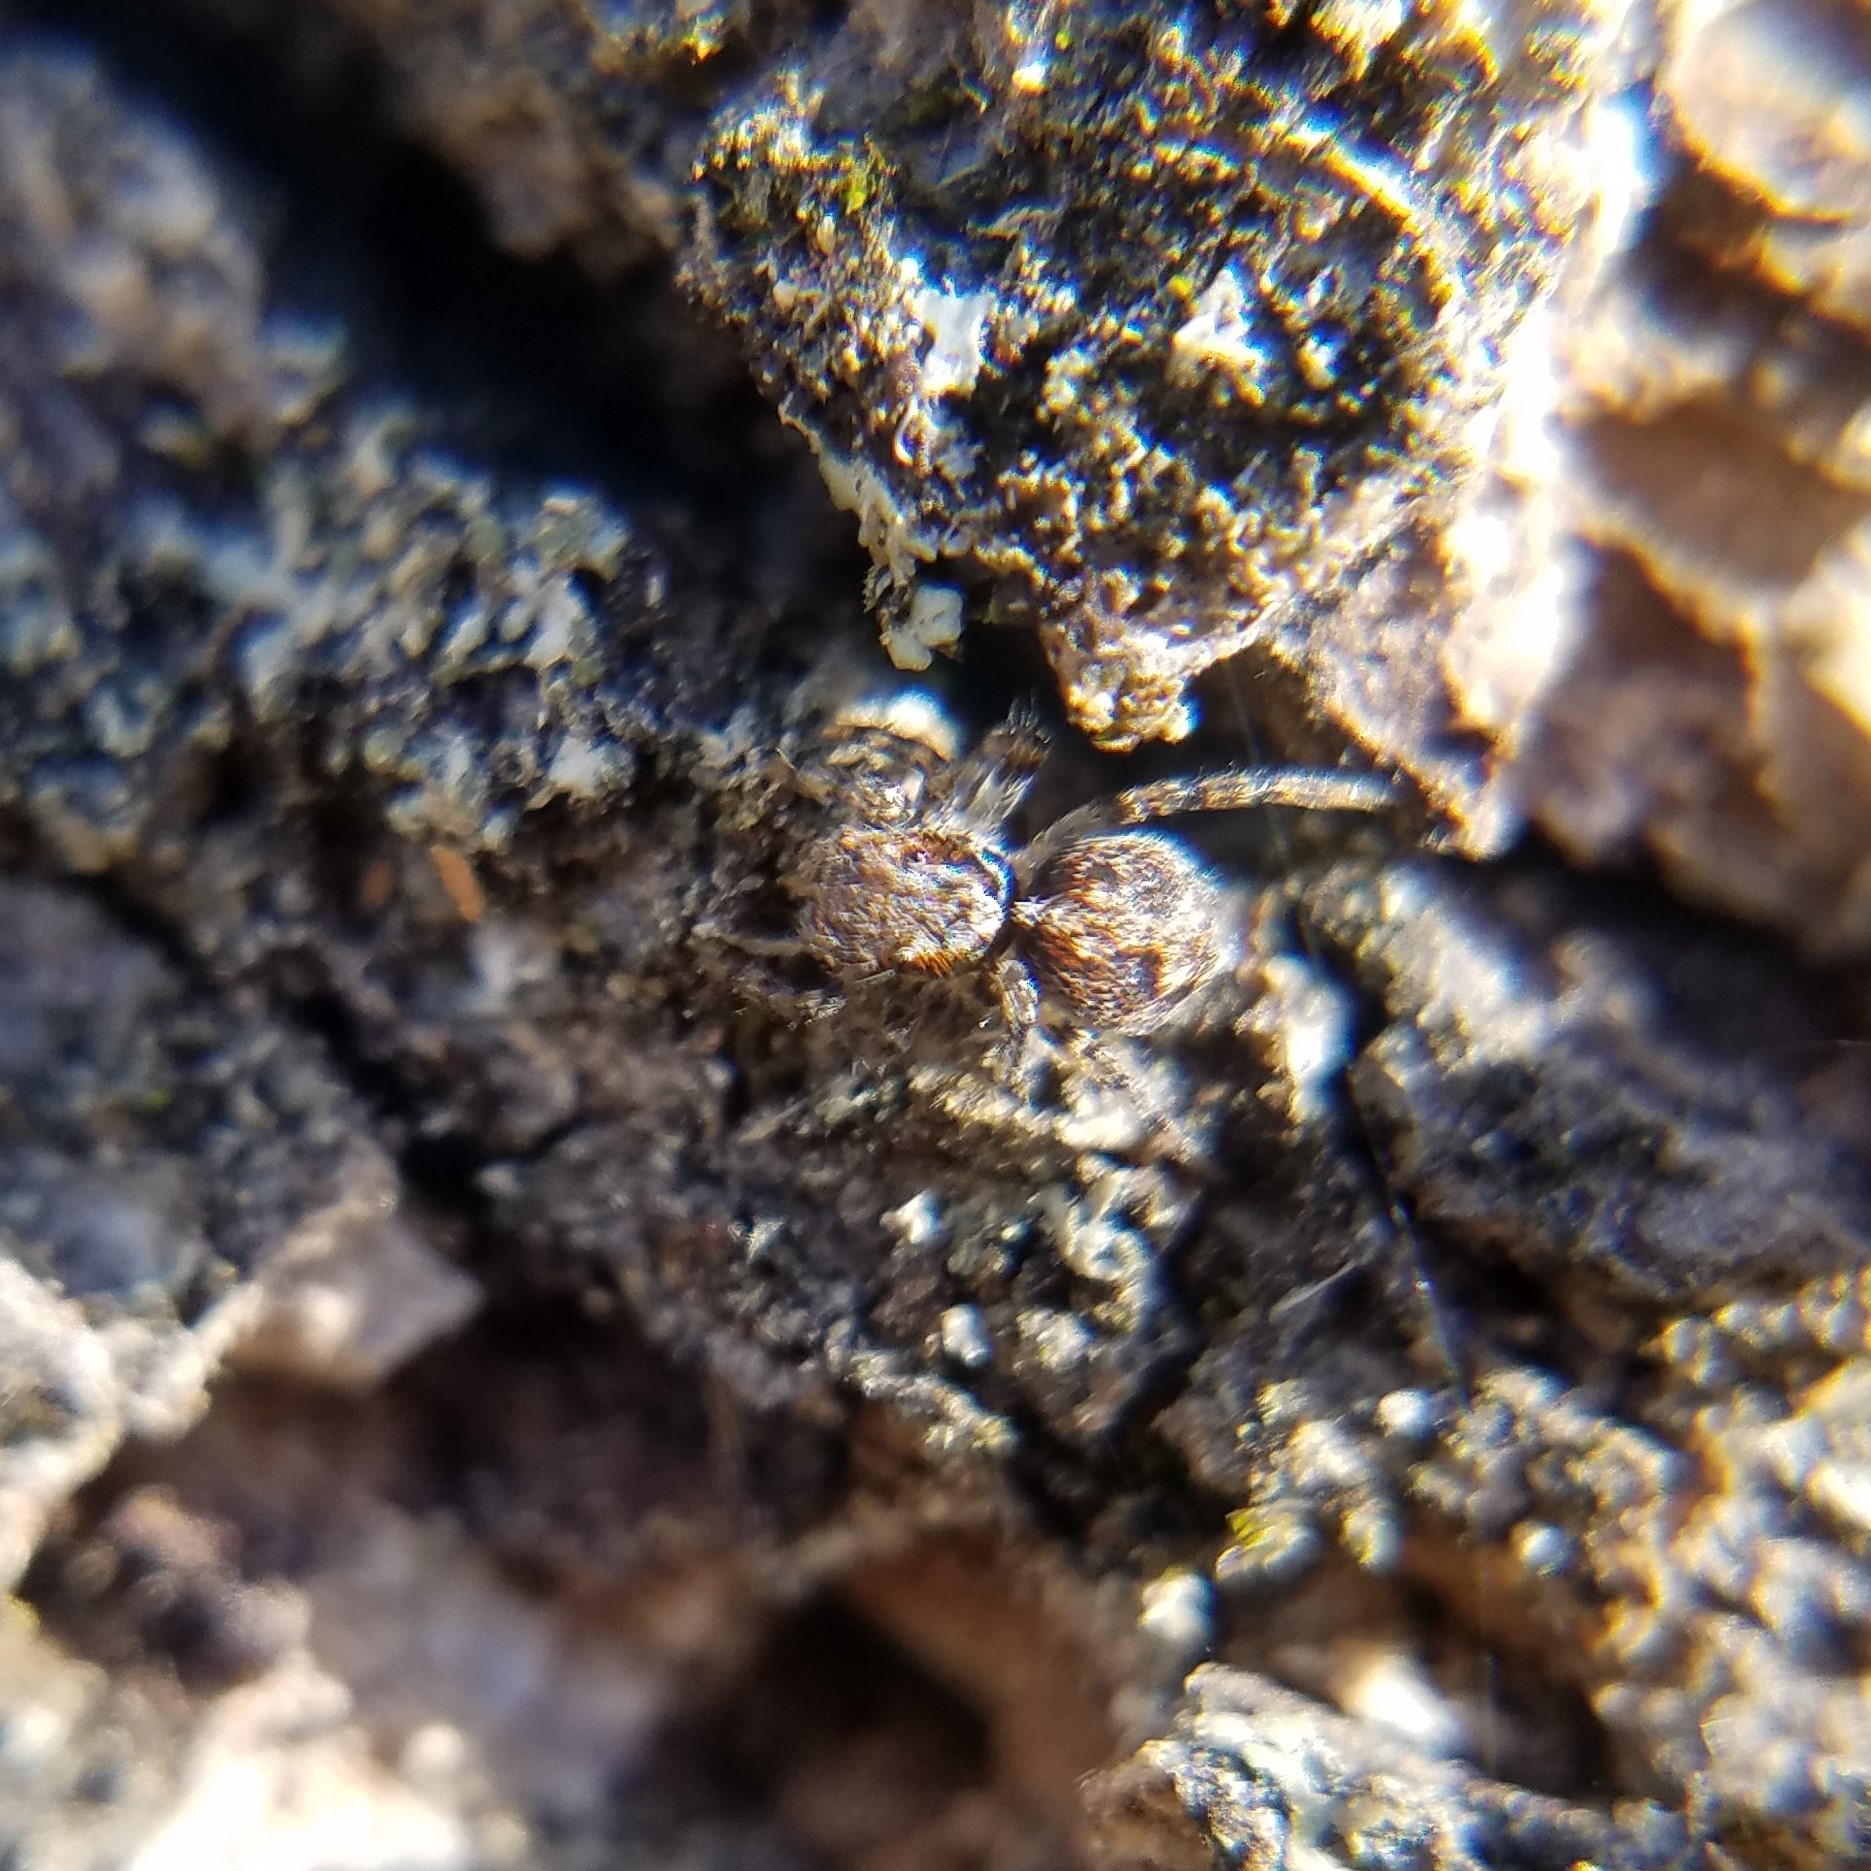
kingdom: Animalia
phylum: Arthropoda
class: Arachnida
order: Araneae
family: Salticidae
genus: Naphrys
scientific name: Naphrys pulex
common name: Flea jumping spider
